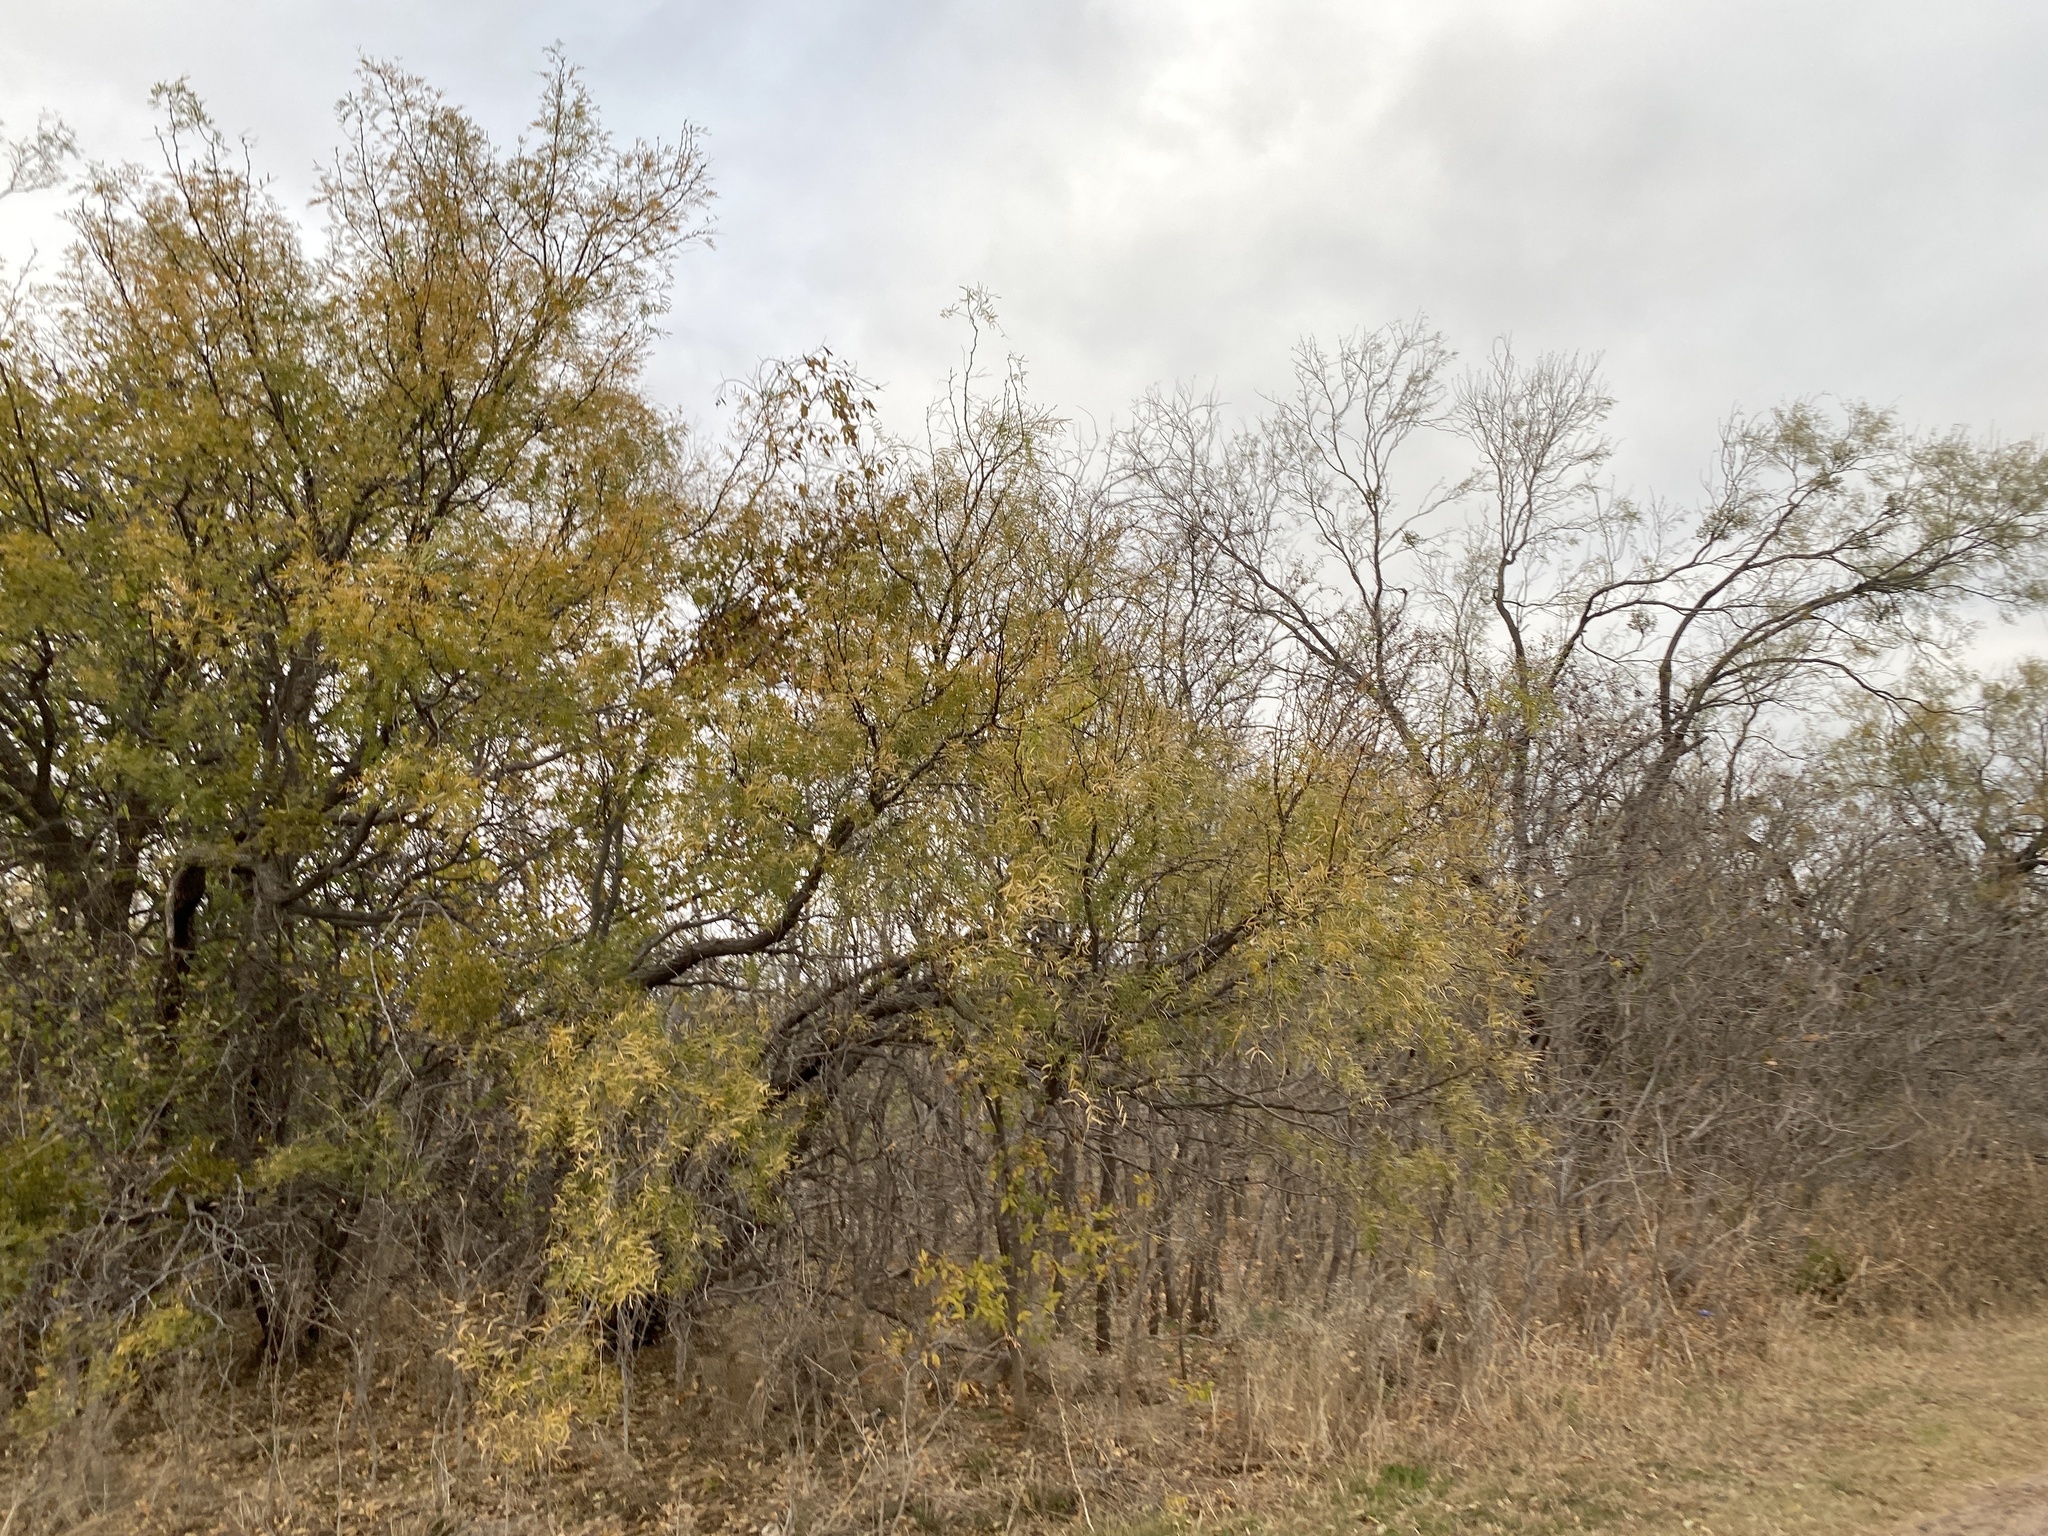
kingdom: Plantae
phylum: Tracheophyta
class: Magnoliopsida
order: Fabales
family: Fabaceae
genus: Prosopis
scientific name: Prosopis glandulosa
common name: Honey mesquite
